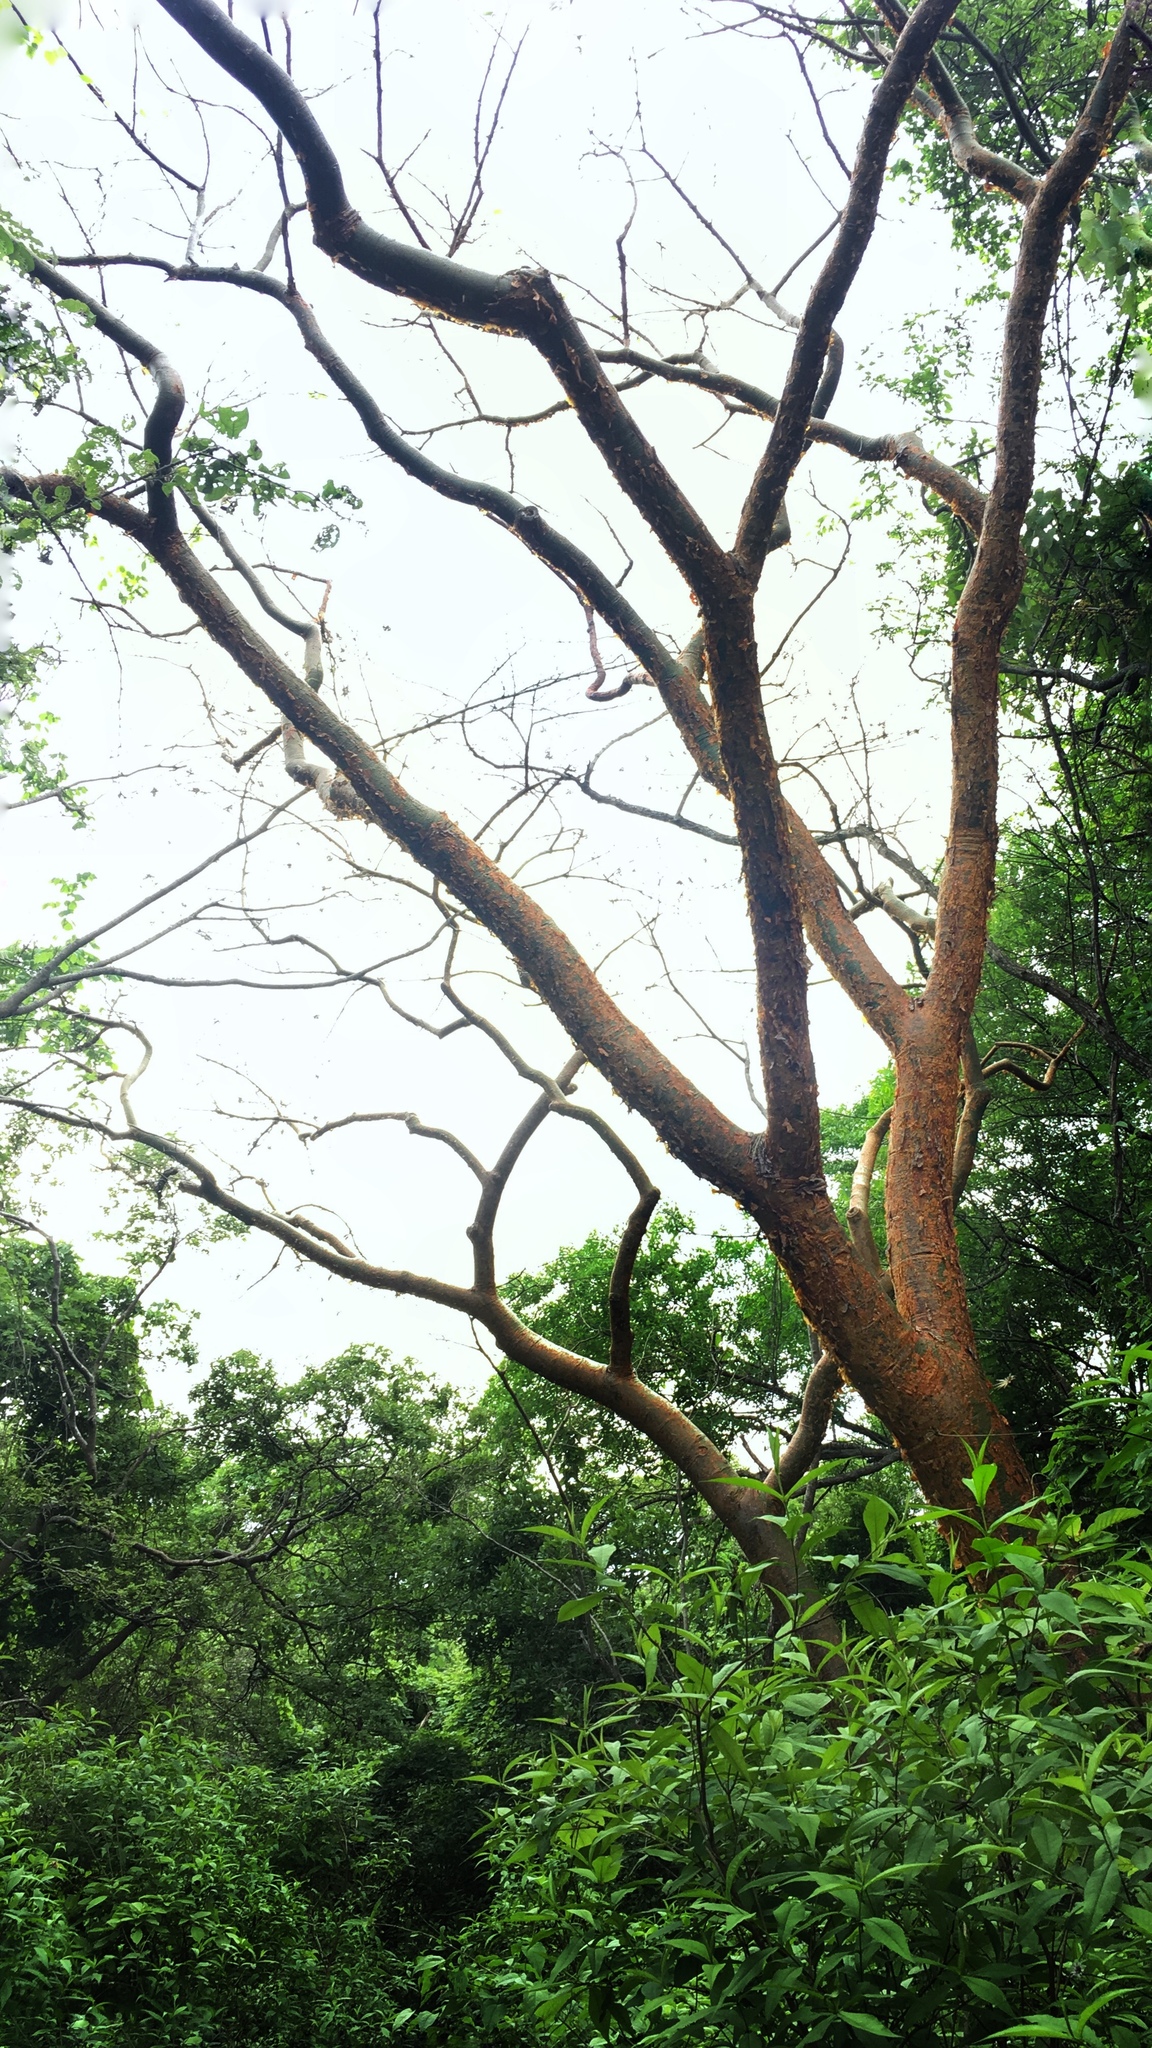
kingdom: Plantae
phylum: Tracheophyta
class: Magnoliopsida
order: Sapindales
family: Burseraceae
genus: Bursera
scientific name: Bursera simaruba
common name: Turpentine tree
